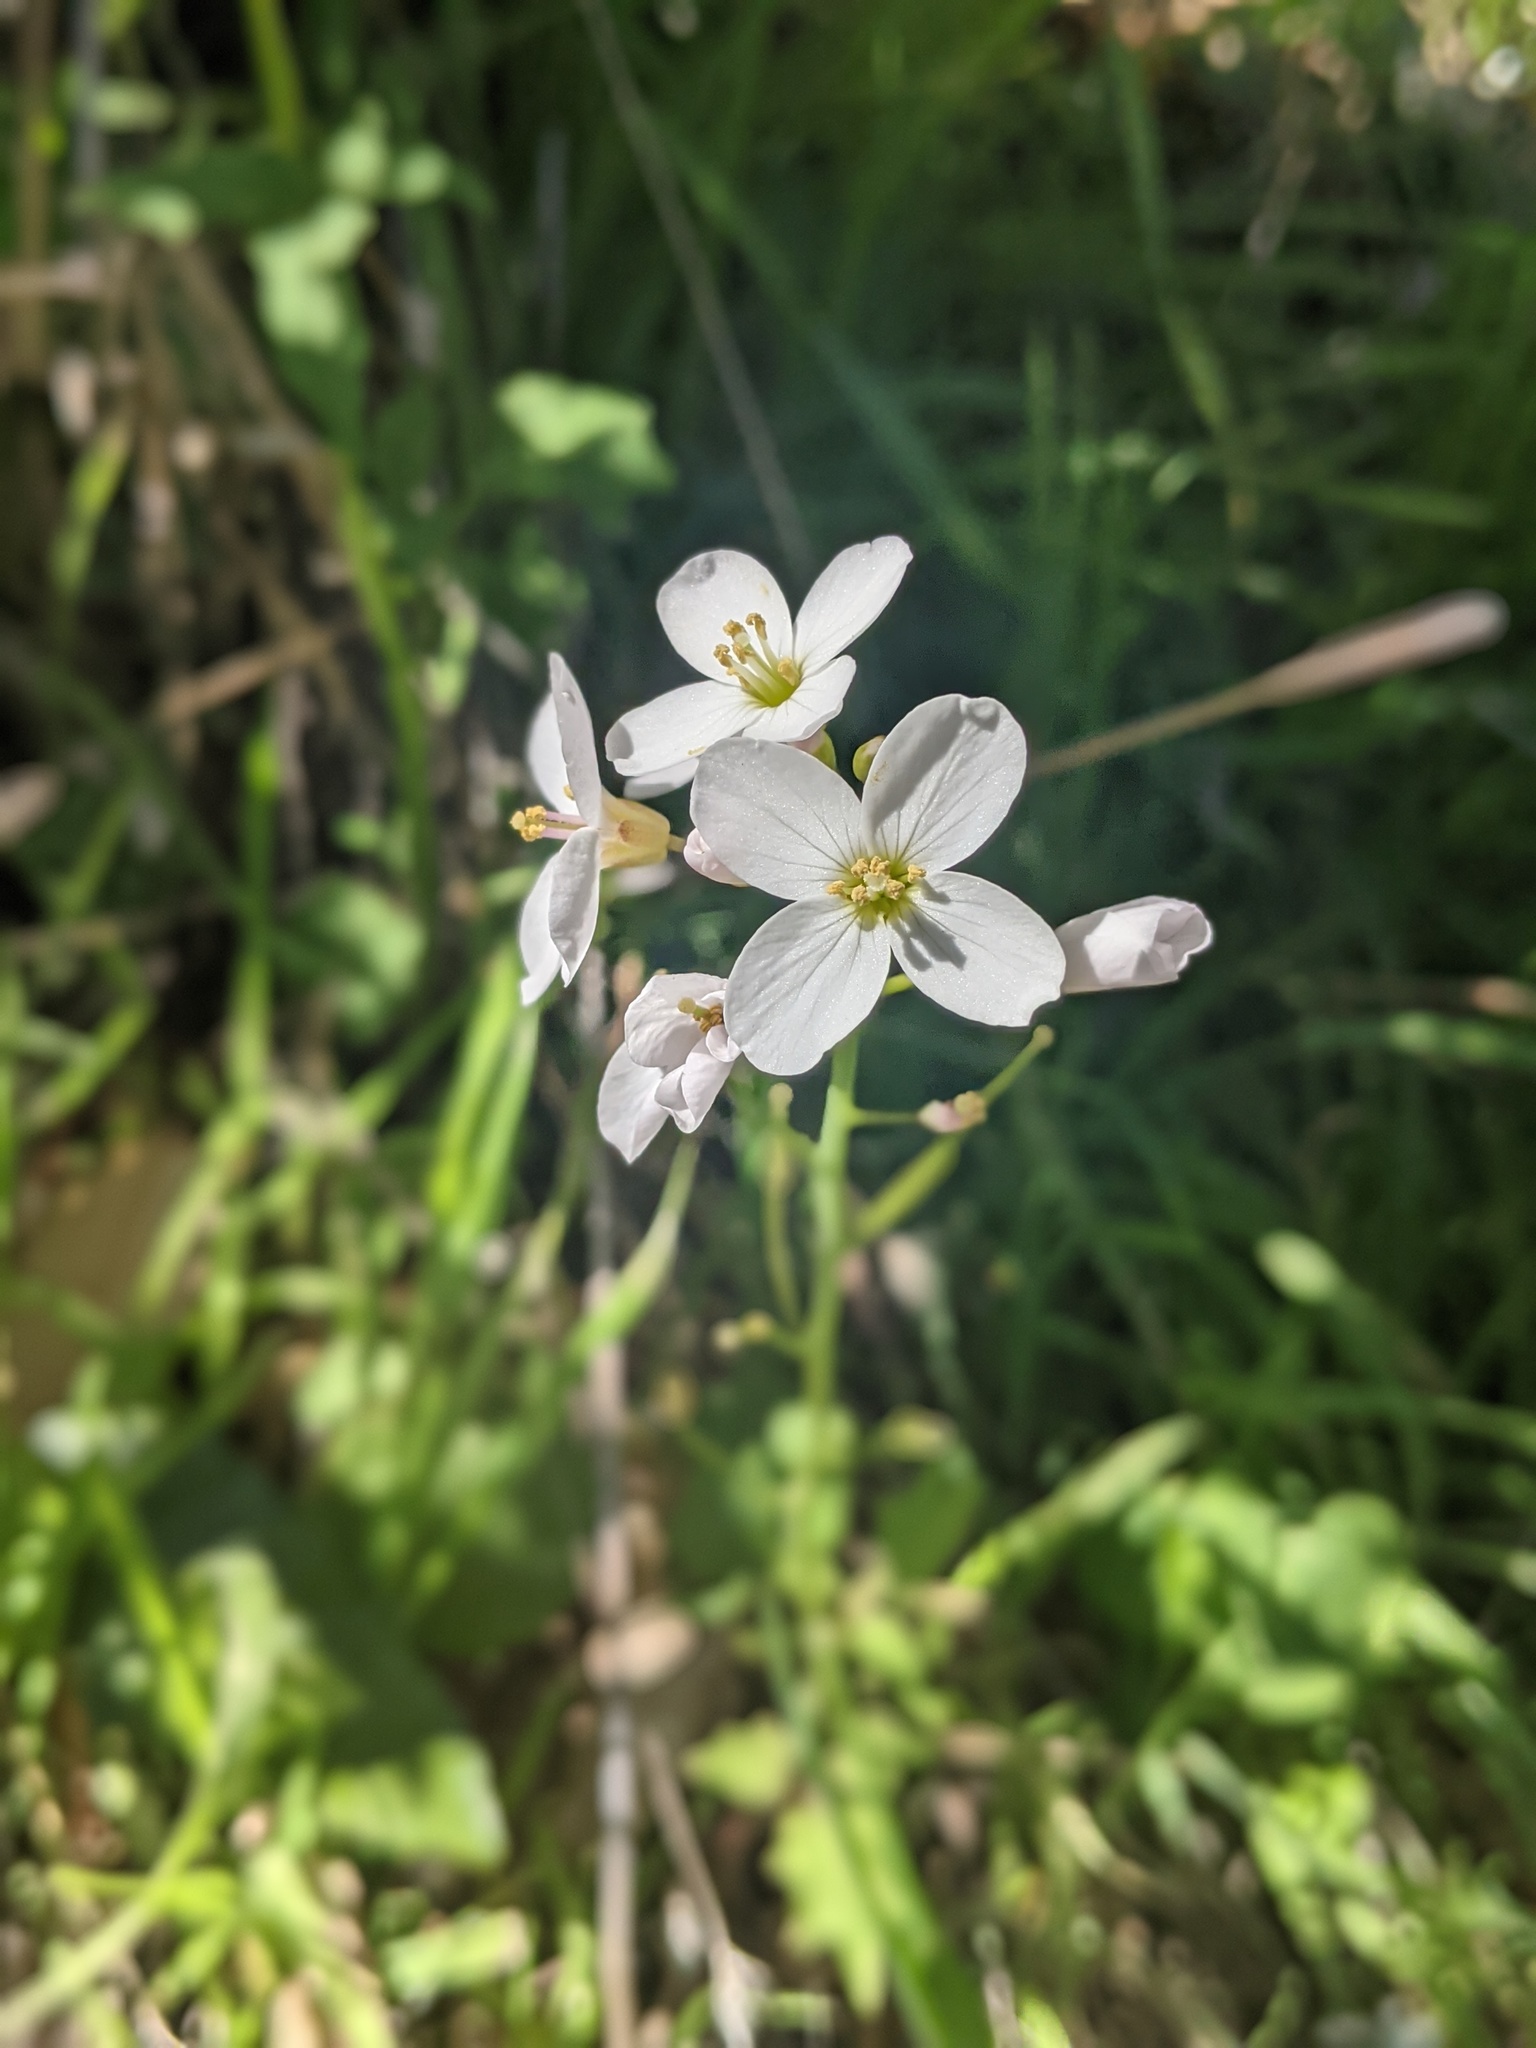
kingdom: Plantae
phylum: Tracheophyta
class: Magnoliopsida
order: Brassicales
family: Brassicaceae
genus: Cardamine
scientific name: Cardamine californica
